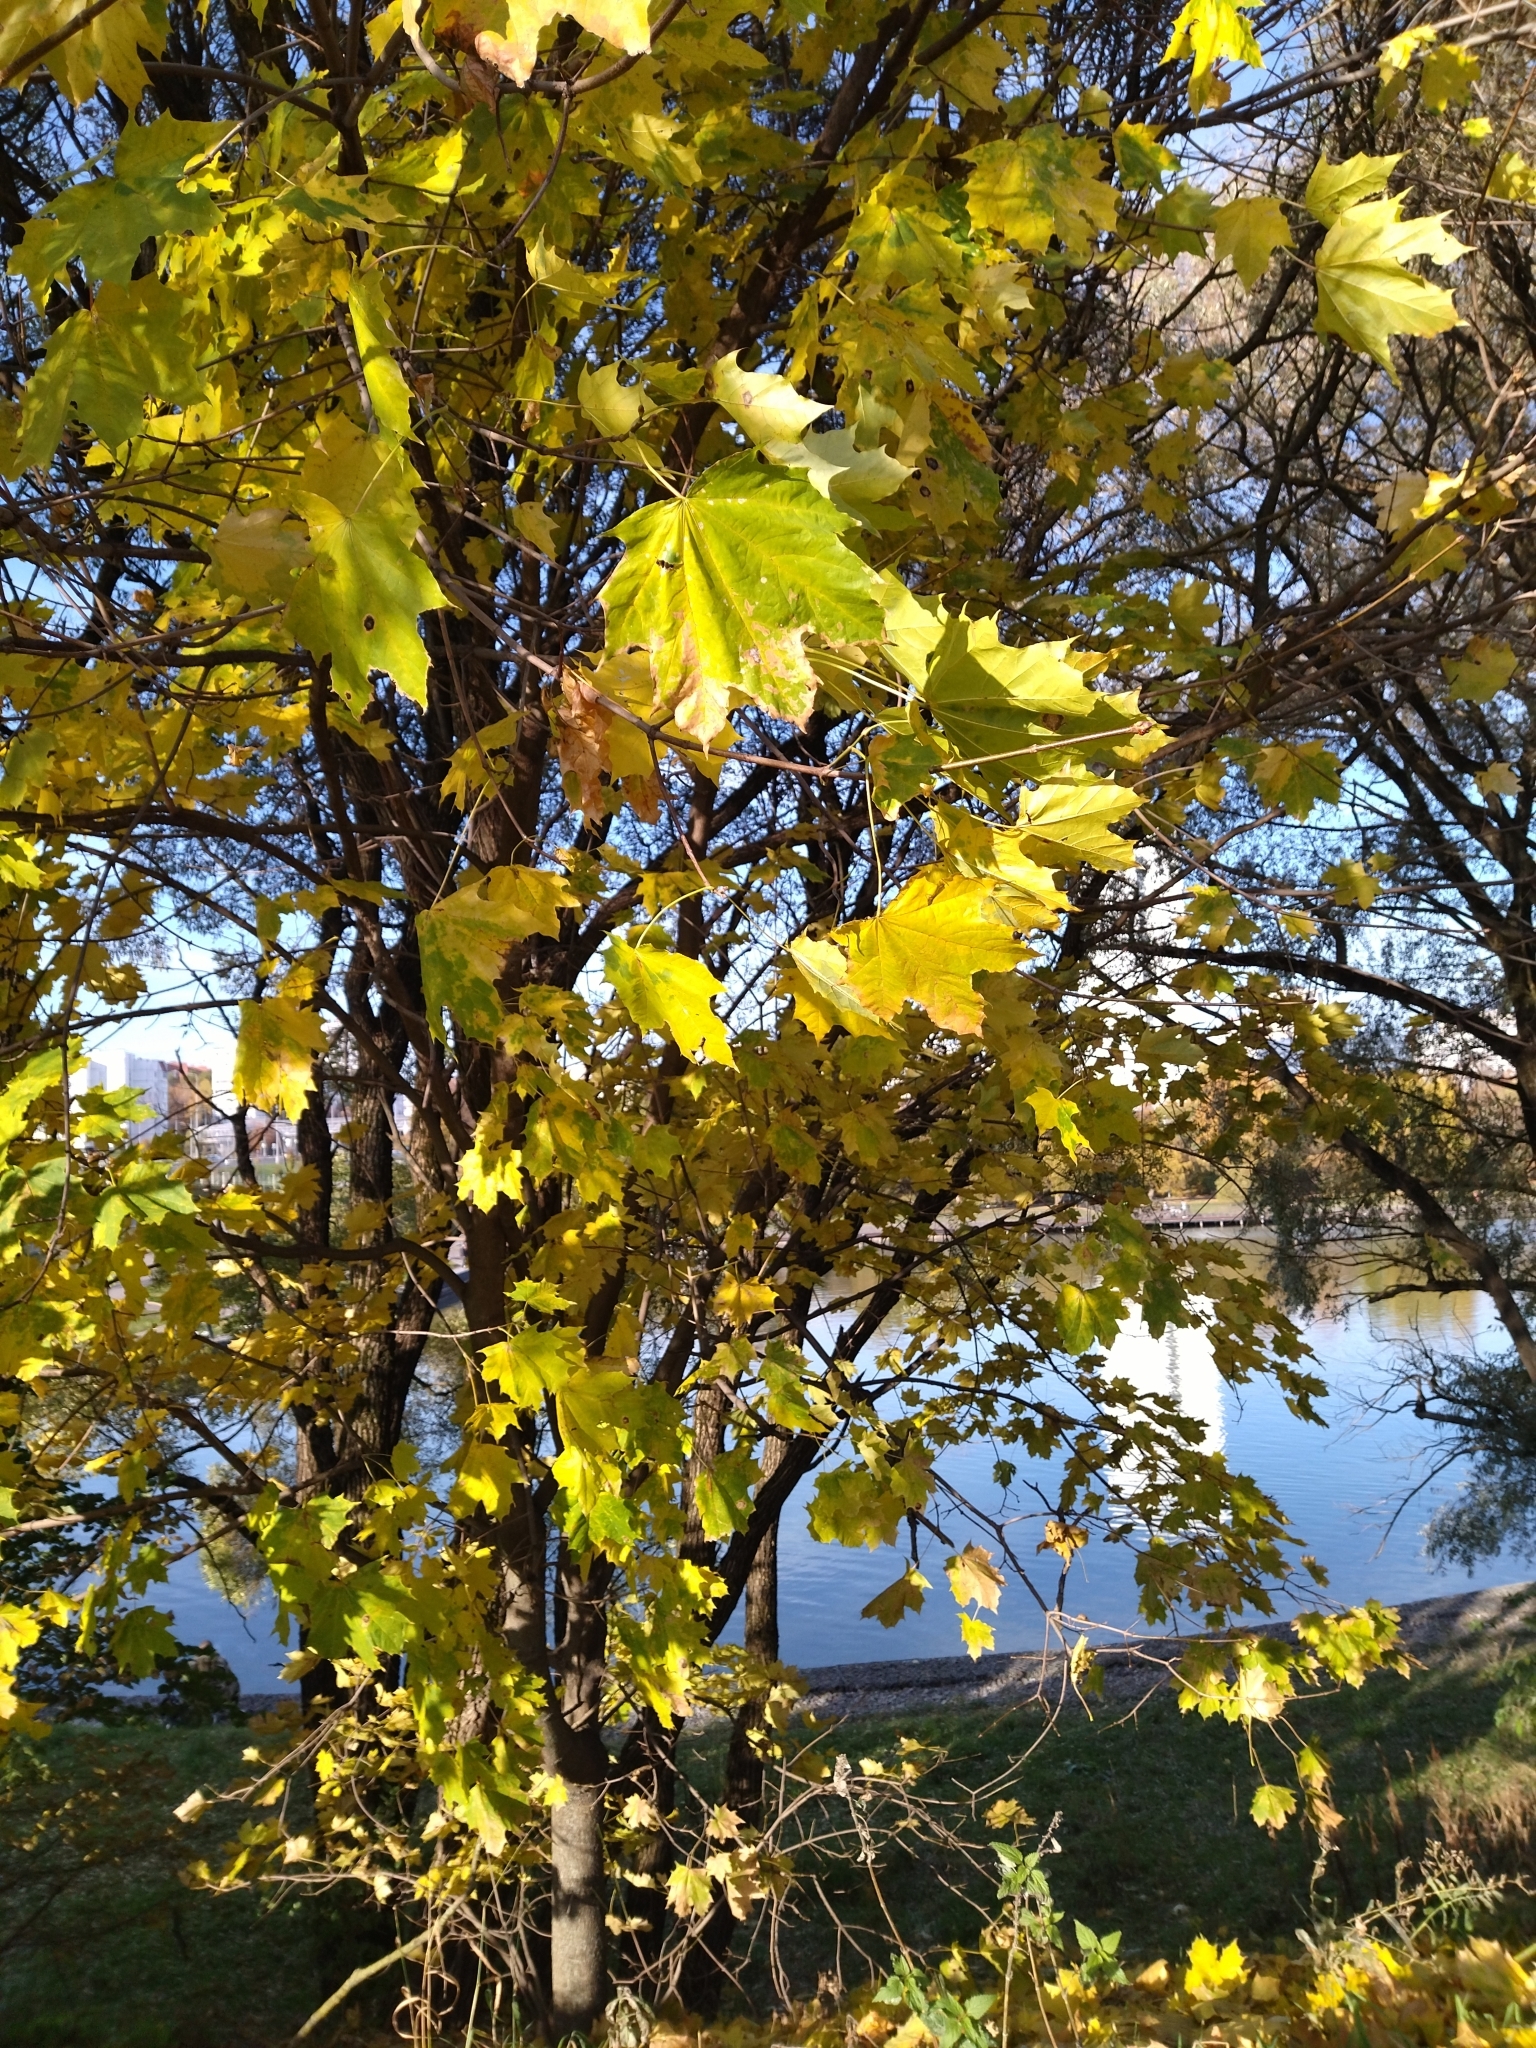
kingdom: Plantae
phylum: Tracheophyta
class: Magnoliopsida
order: Sapindales
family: Sapindaceae
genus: Acer
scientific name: Acer platanoides
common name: Norway maple
